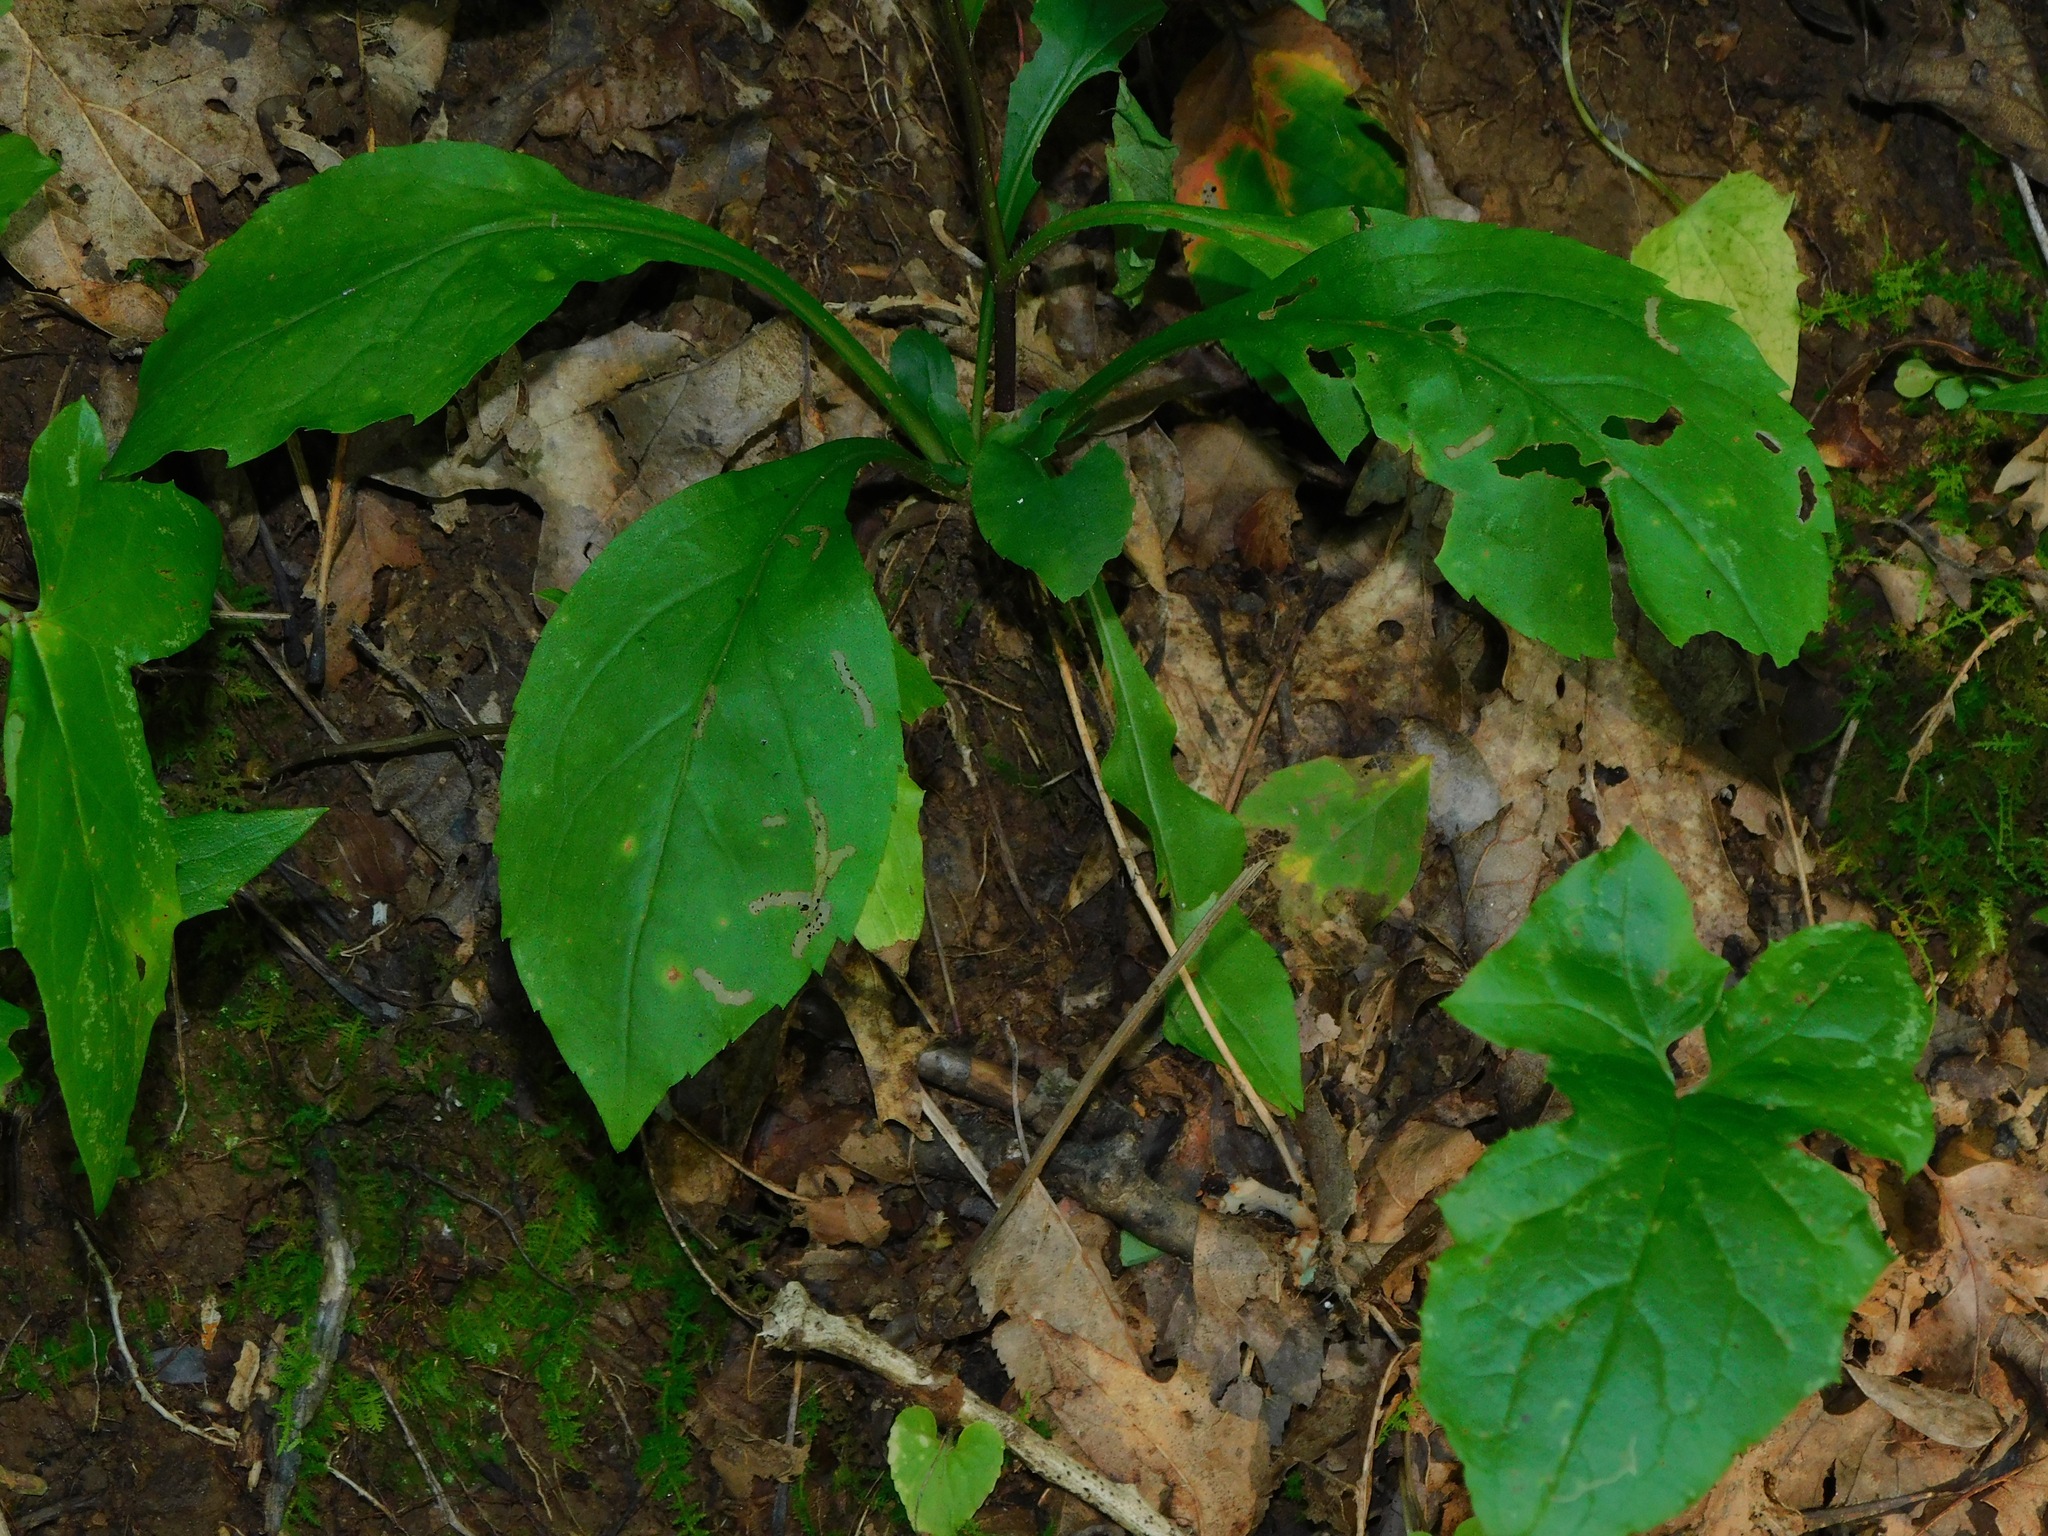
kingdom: Plantae
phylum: Tracheophyta
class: Magnoliopsida
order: Asterales
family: Asteraceae
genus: Solidago
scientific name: Solidago hispida
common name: Hairy goldenrod
